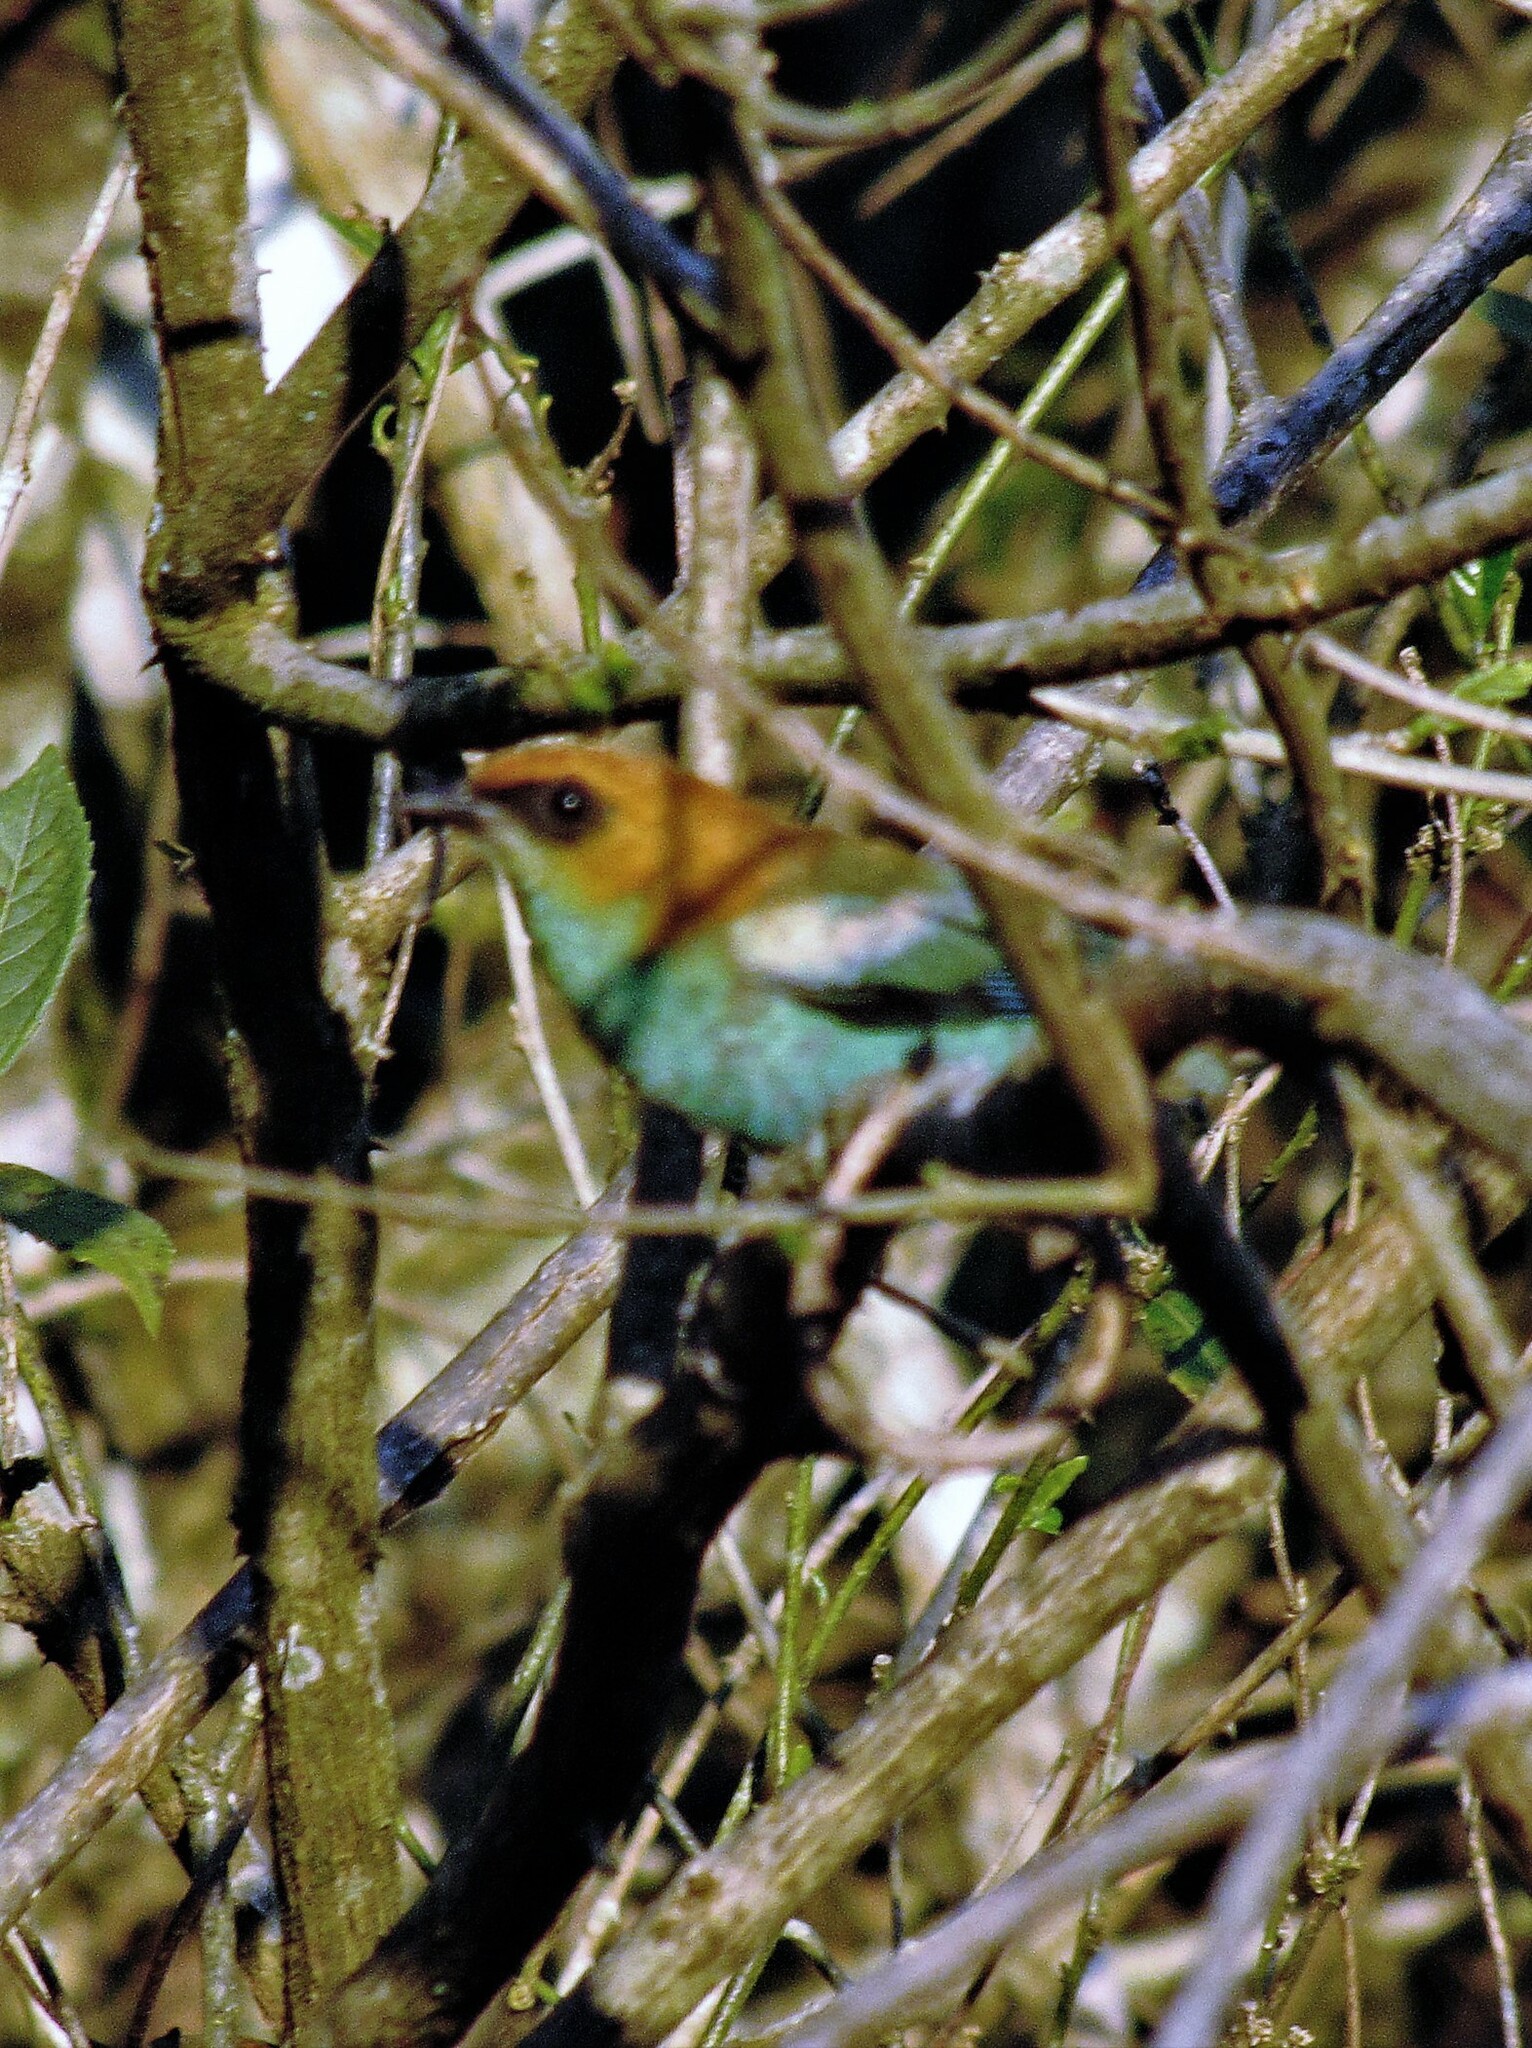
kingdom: Animalia
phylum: Chordata
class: Aves
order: Passeriformes
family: Thraupidae
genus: Stilpnia
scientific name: Stilpnia preciosa
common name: Chestnut-backed tanager
